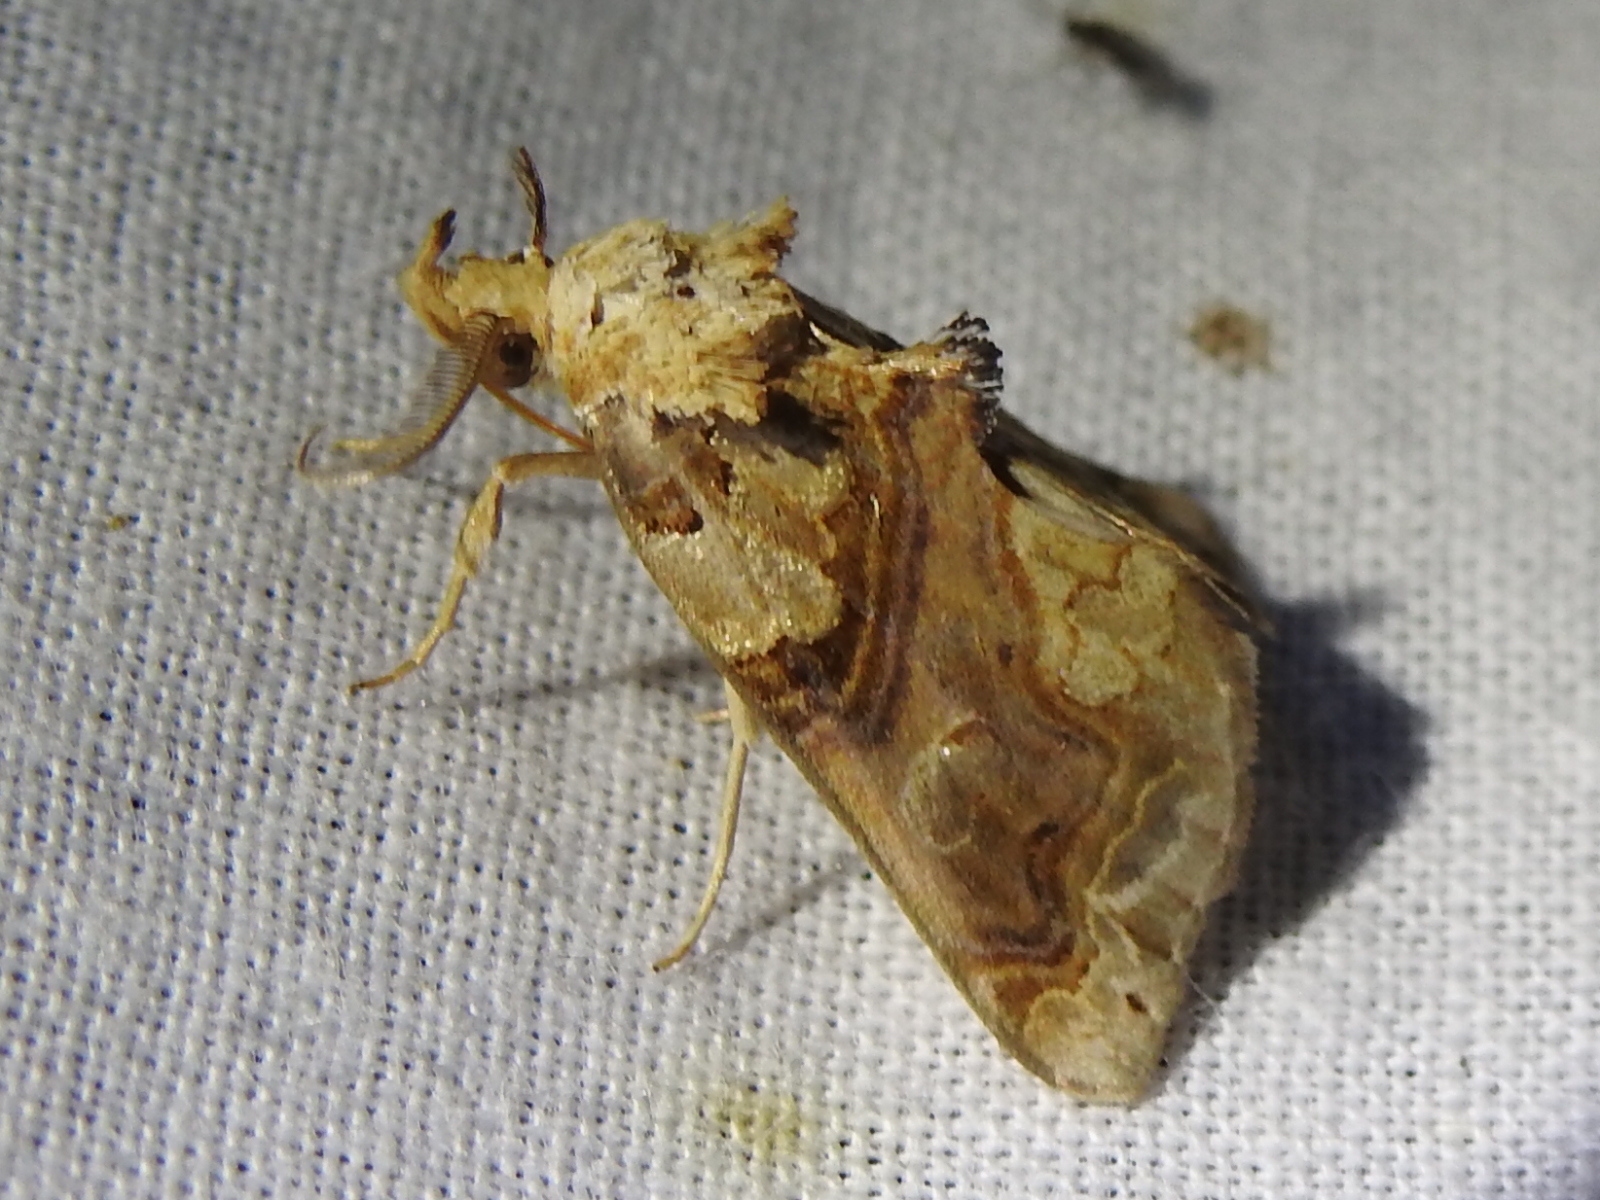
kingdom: Animalia
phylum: Arthropoda
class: Insecta
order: Lepidoptera
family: Erebidae
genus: Plusiodonta
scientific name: Plusiodonta compressipalpis
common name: Moonseed moth
